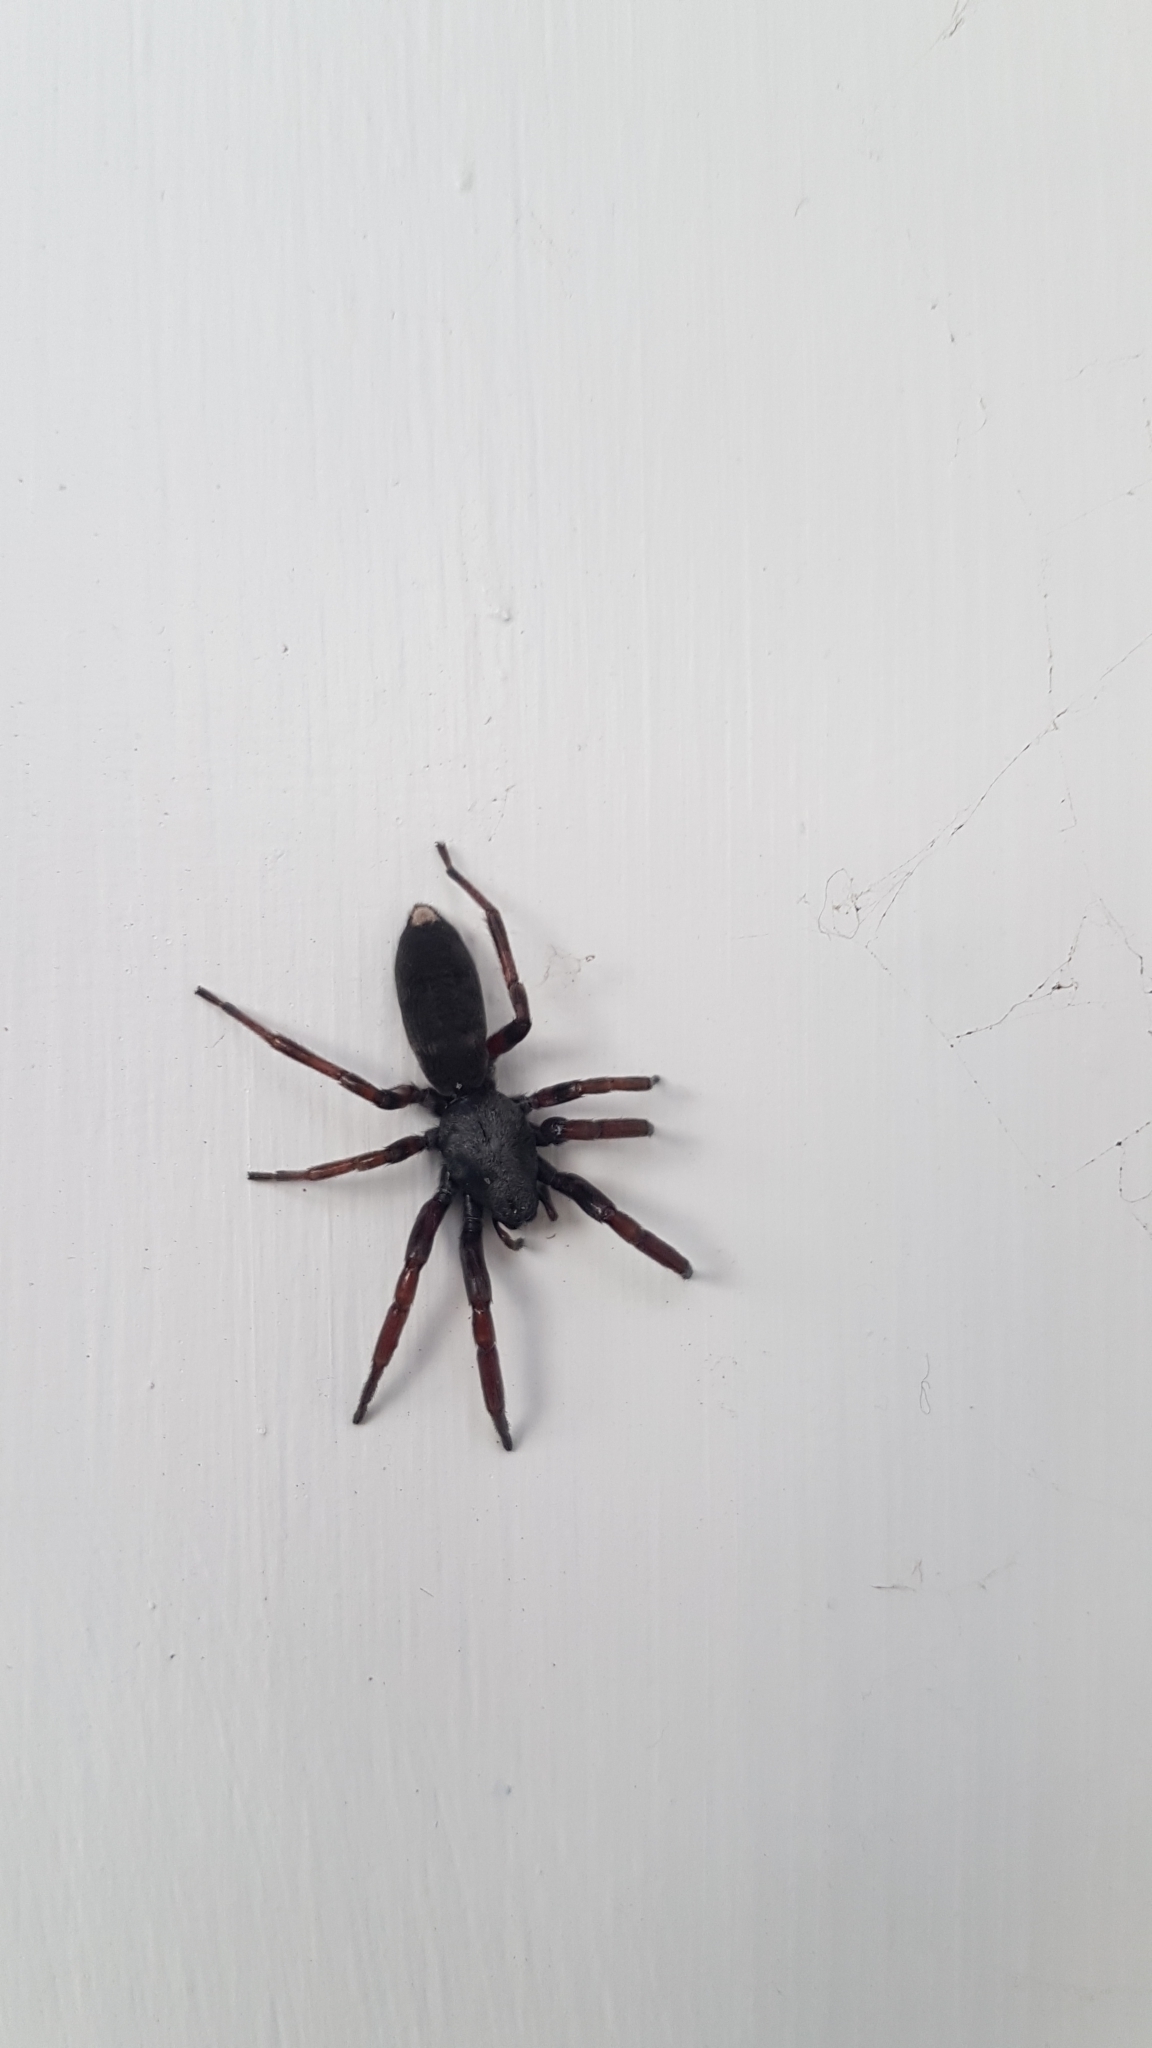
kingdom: Animalia
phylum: Arthropoda
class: Arachnida
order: Araneae
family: Lamponidae
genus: Lampona
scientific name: Lampona murina
